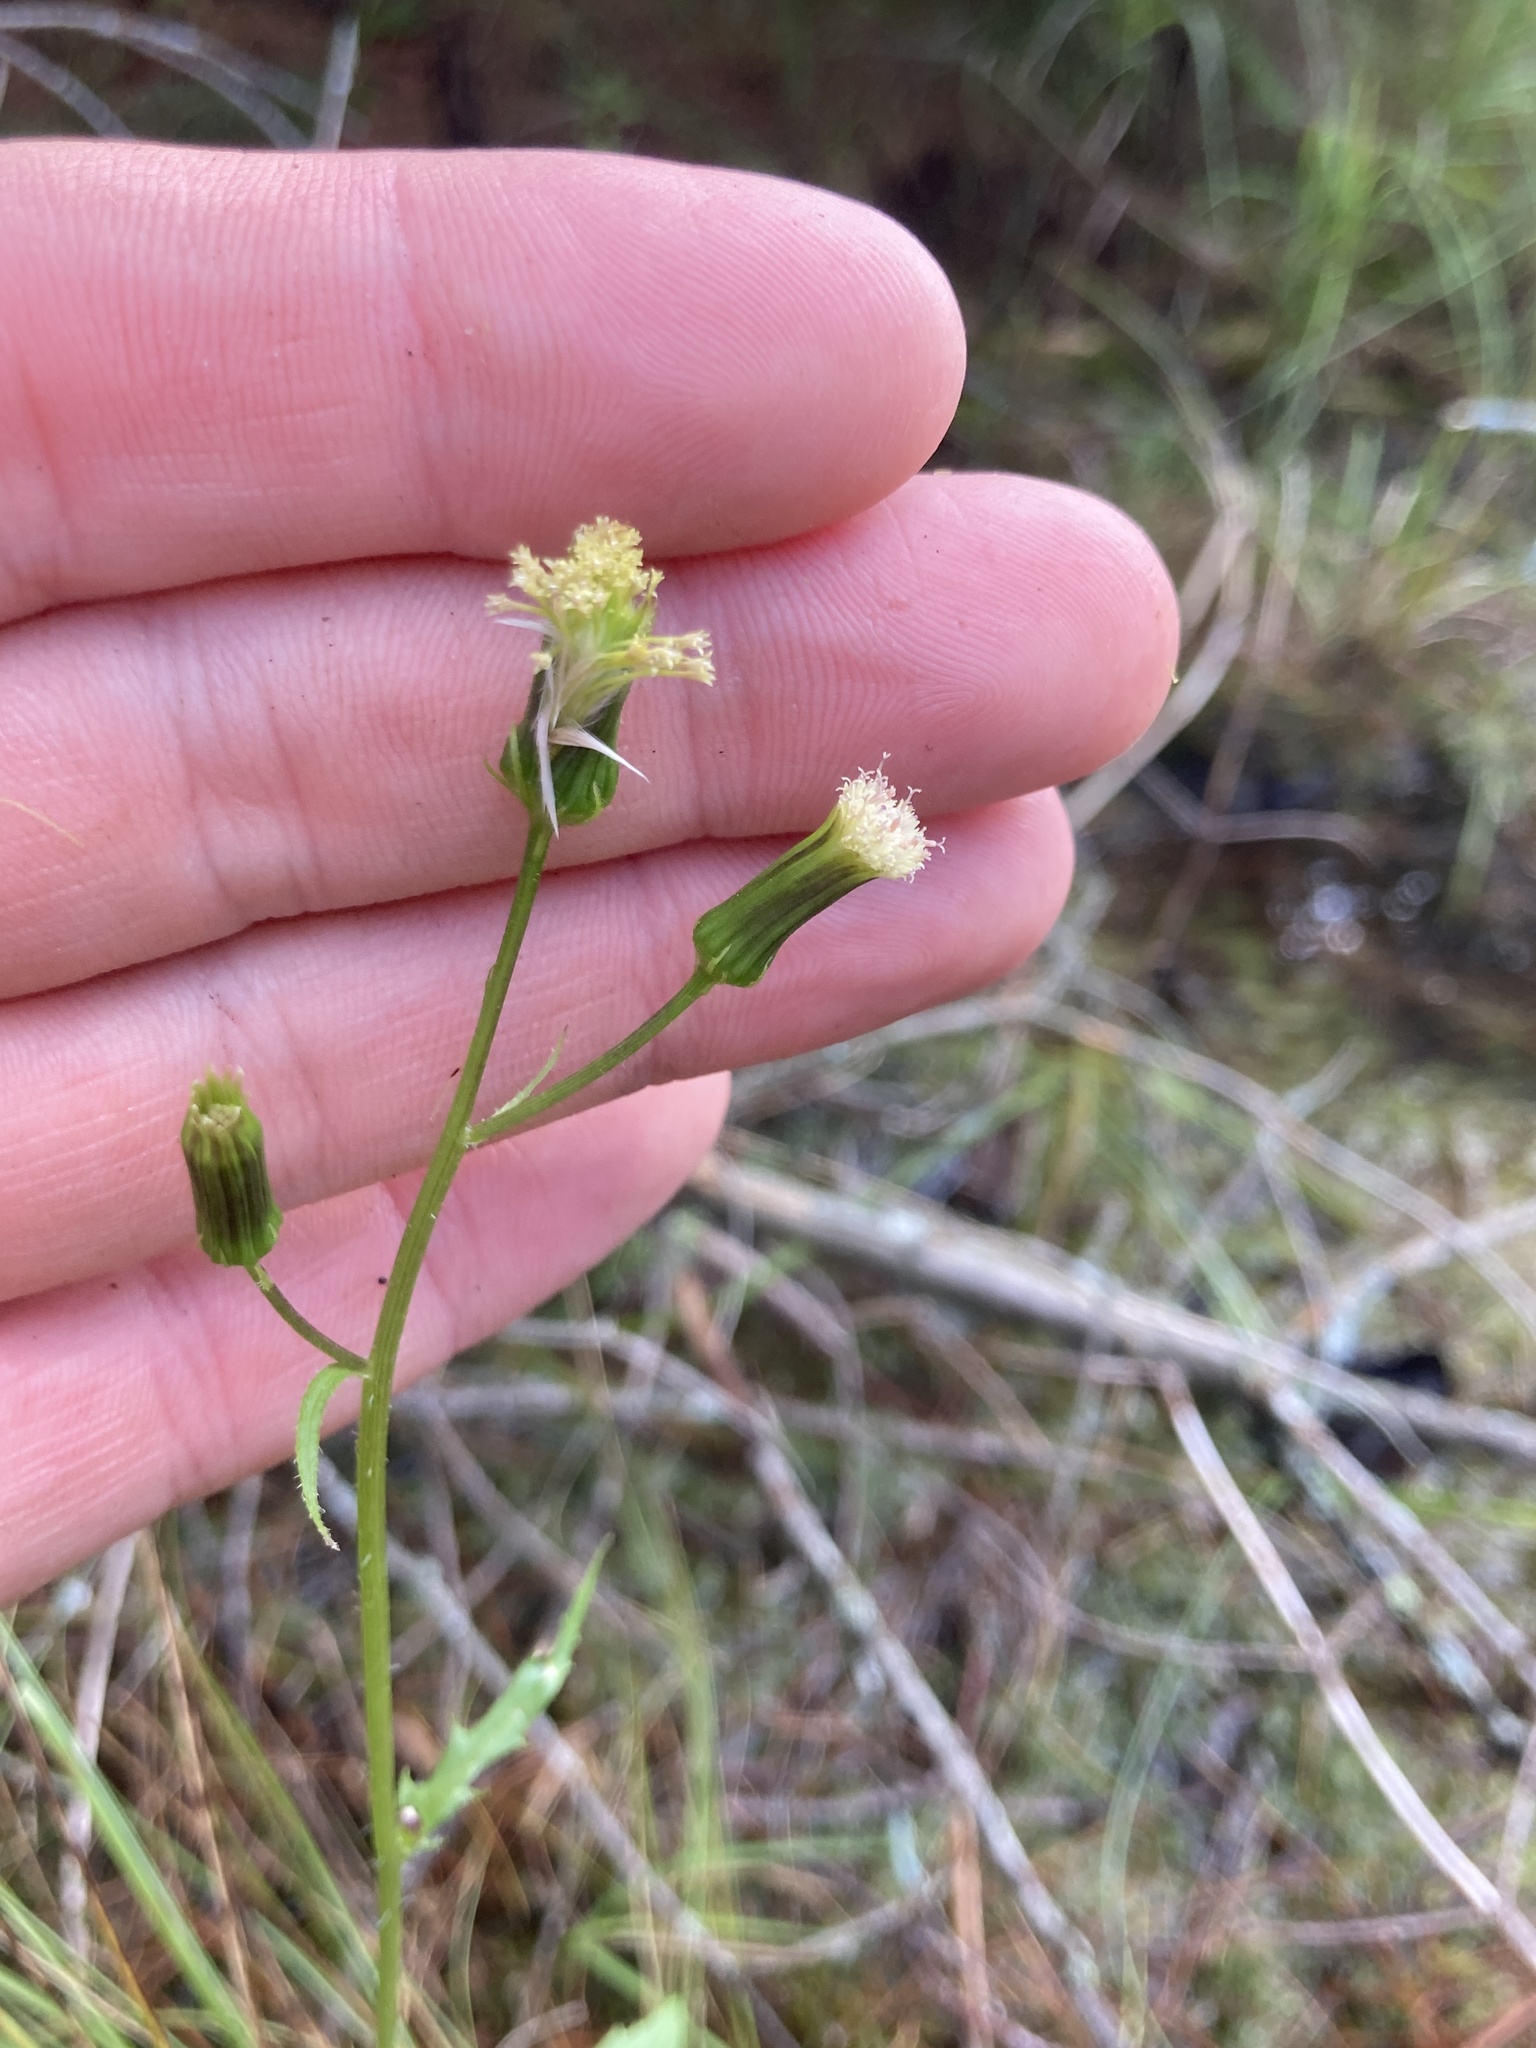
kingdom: Plantae
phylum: Tracheophyta
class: Magnoliopsida
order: Asterales
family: Asteraceae
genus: Erechtites
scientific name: Erechtites hieraciifolius
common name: American burnweed
